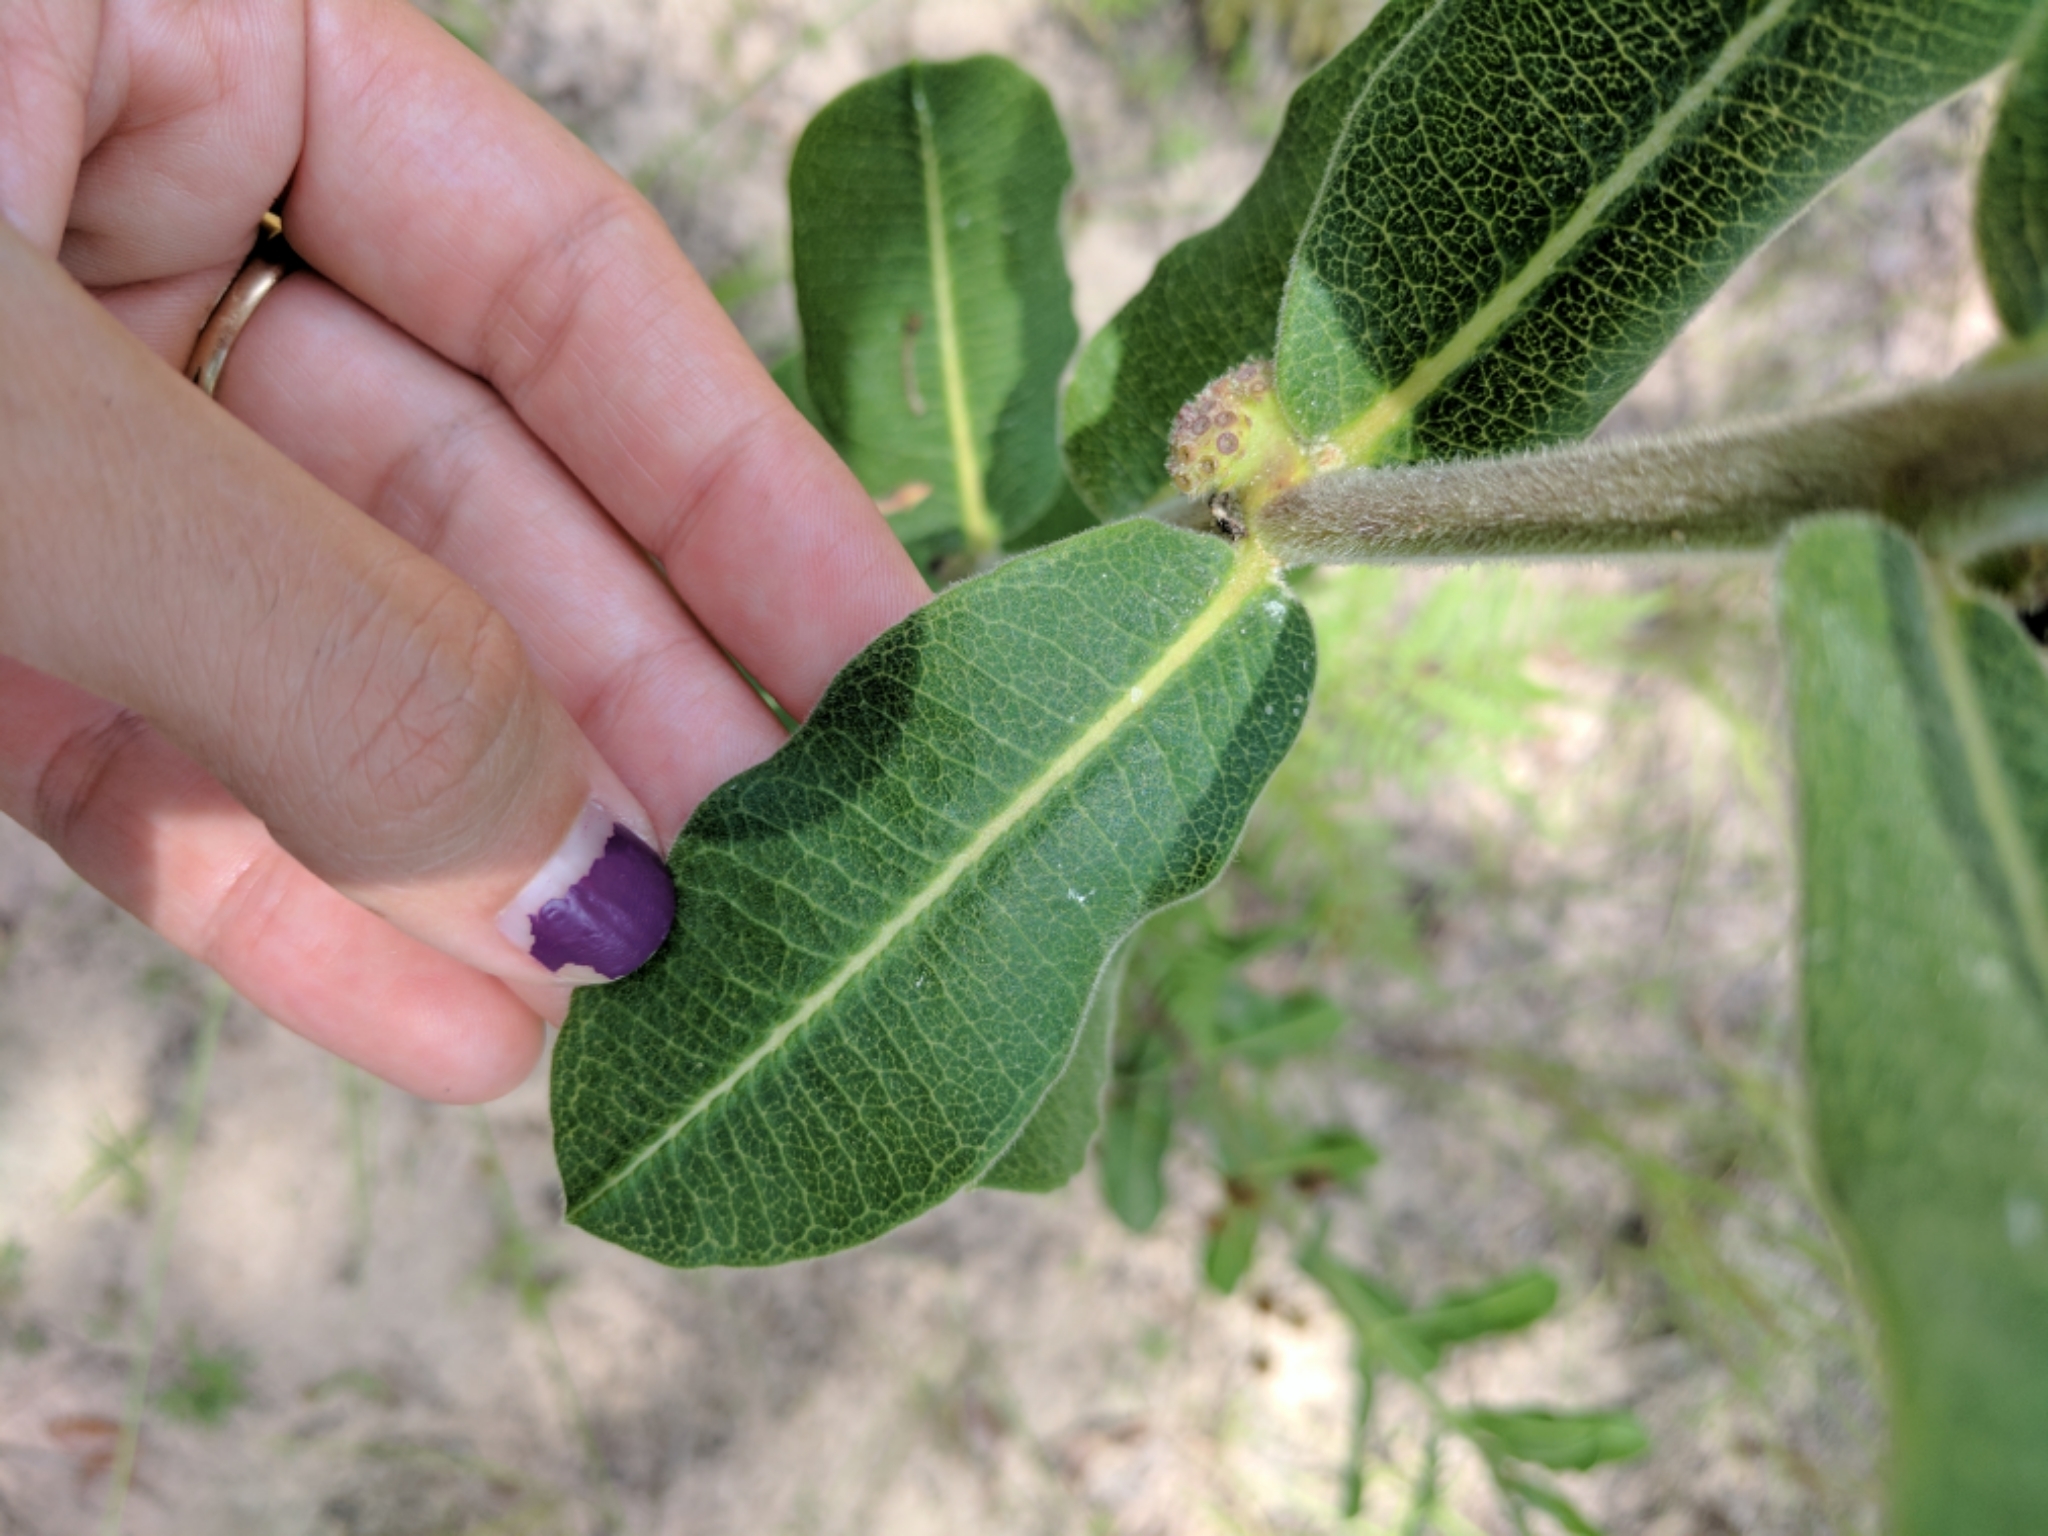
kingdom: Plantae
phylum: Tracheophyta
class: Magnoliopsida
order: Gentianales
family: Apocynaceae
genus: Asclepias
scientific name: Asclepias obovata
